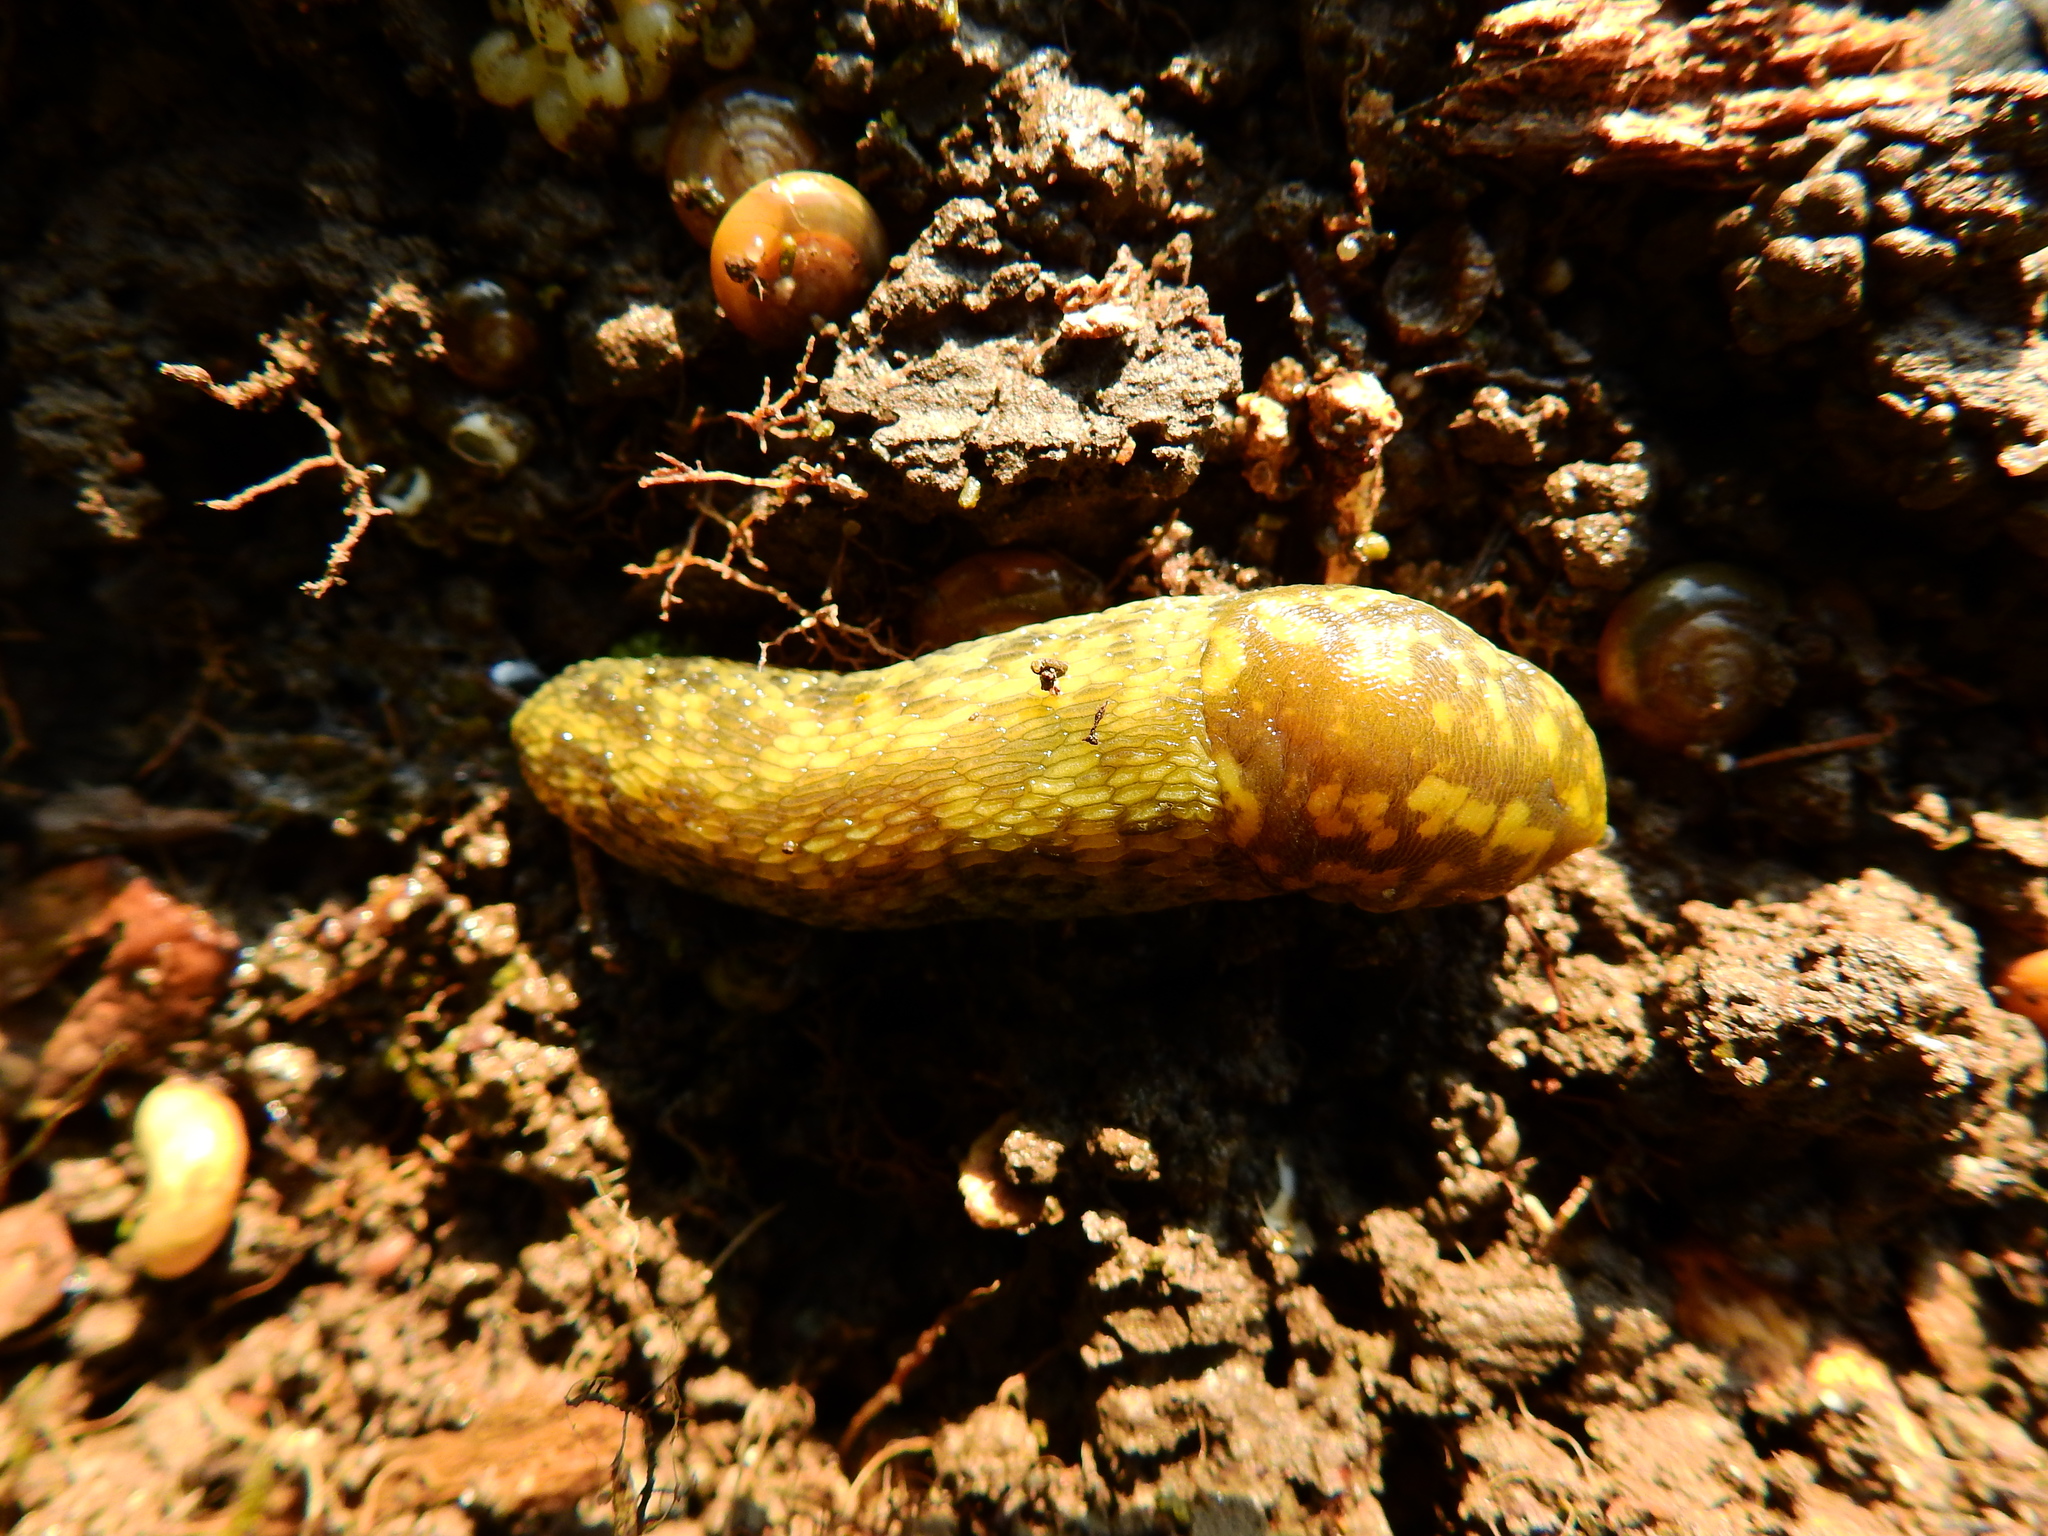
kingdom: Animalia
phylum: Mollusca
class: Gastropoda
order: Stylommatophora
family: Limacidae
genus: Limacus
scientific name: Limacus maculatus
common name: Irish yellow slug
